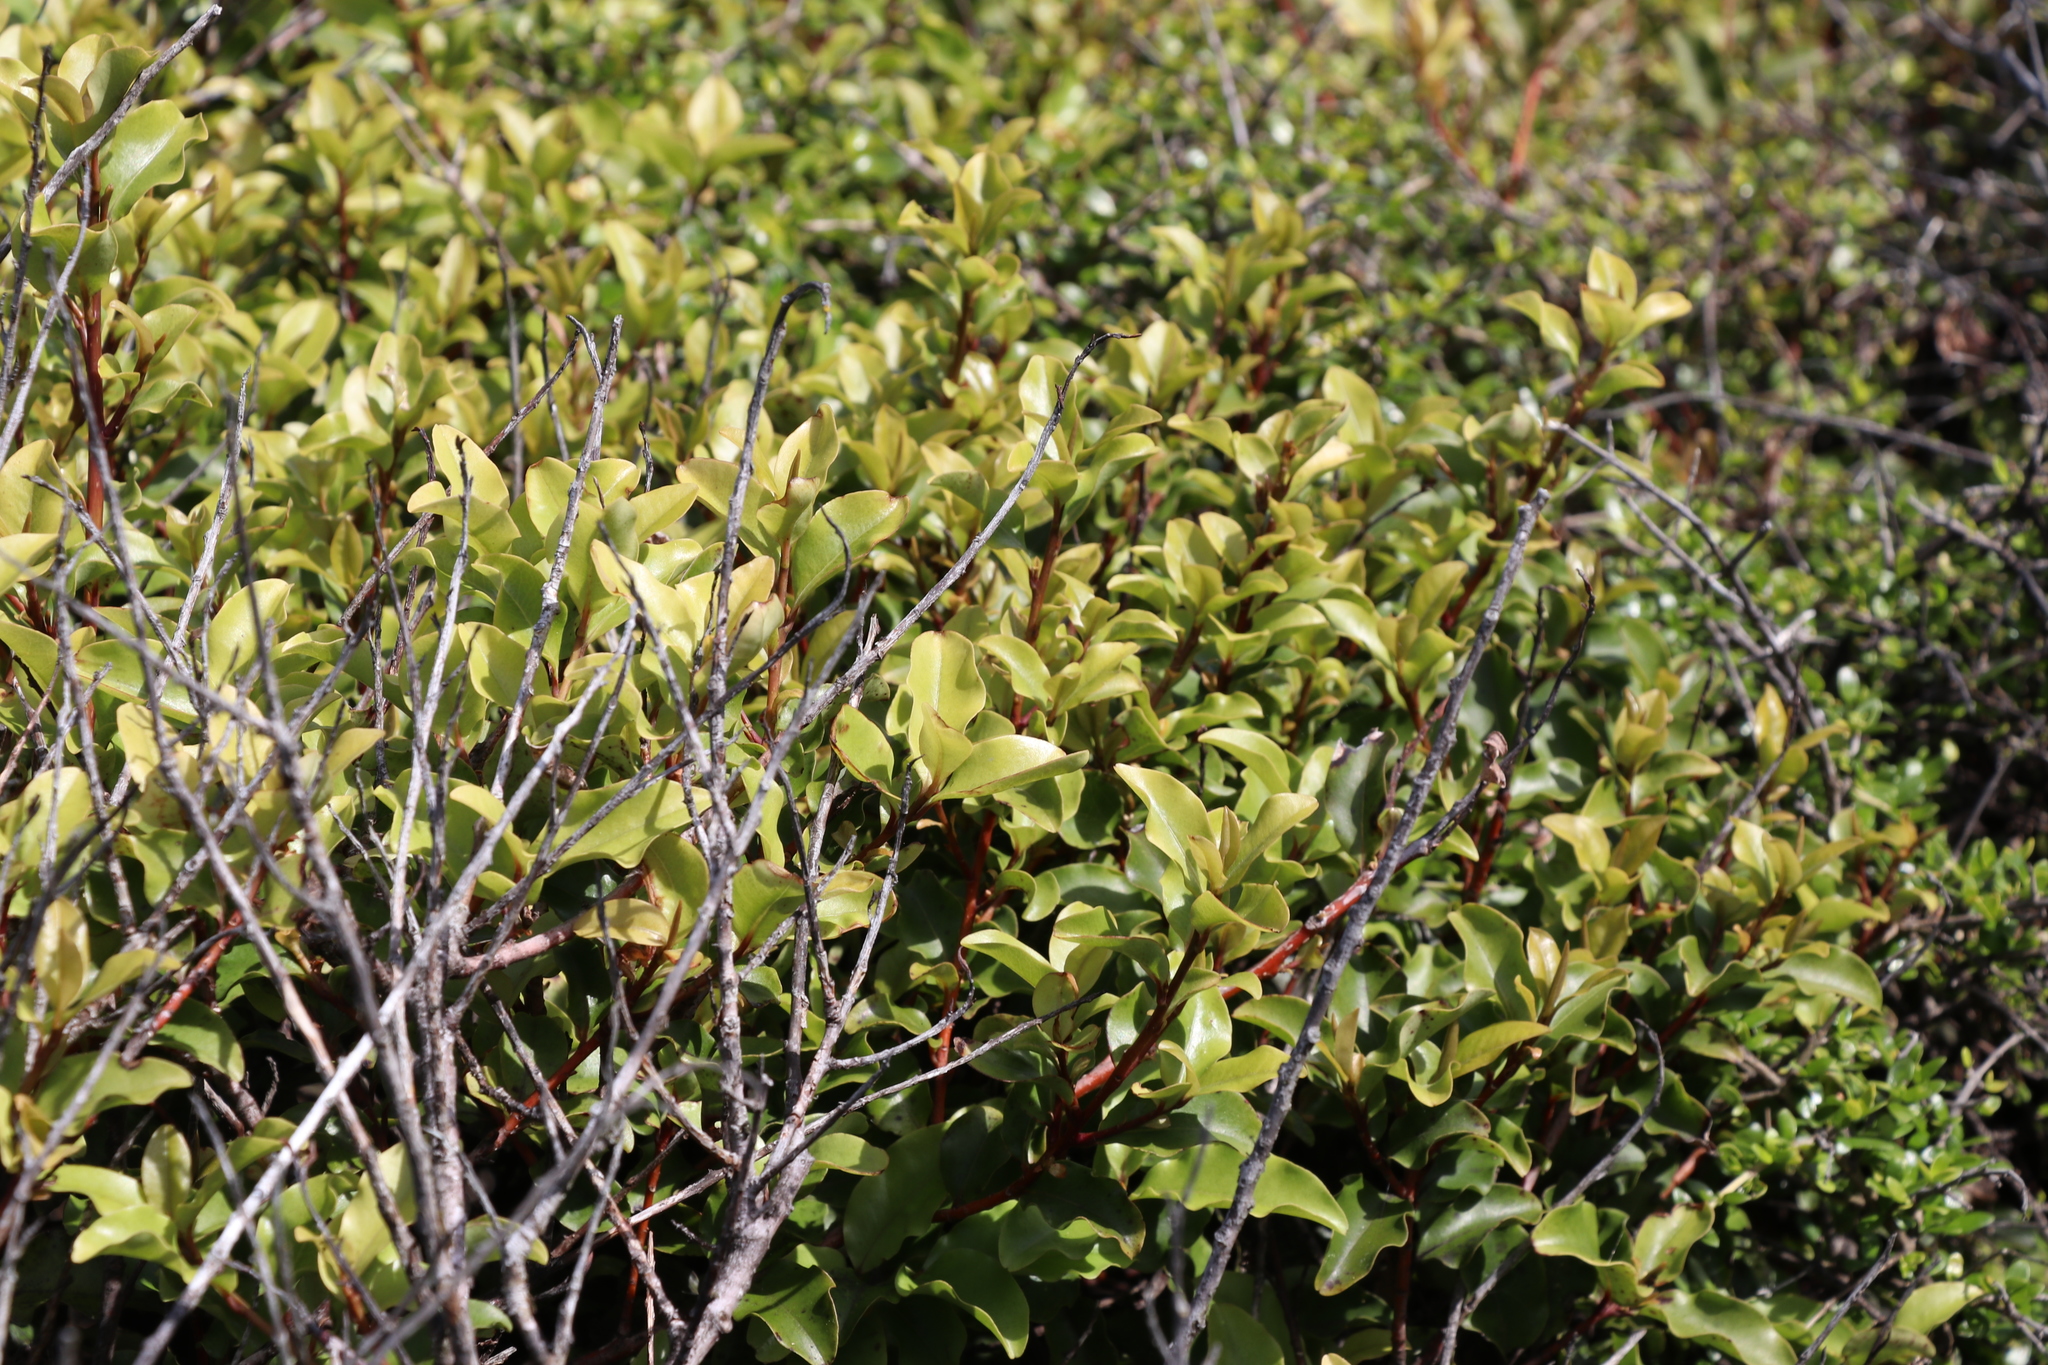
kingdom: Plantae
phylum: Tracheophyta
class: Magnoliopsida
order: Ericales
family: Primulaceae
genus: Myrsine
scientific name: Myrsine australis
